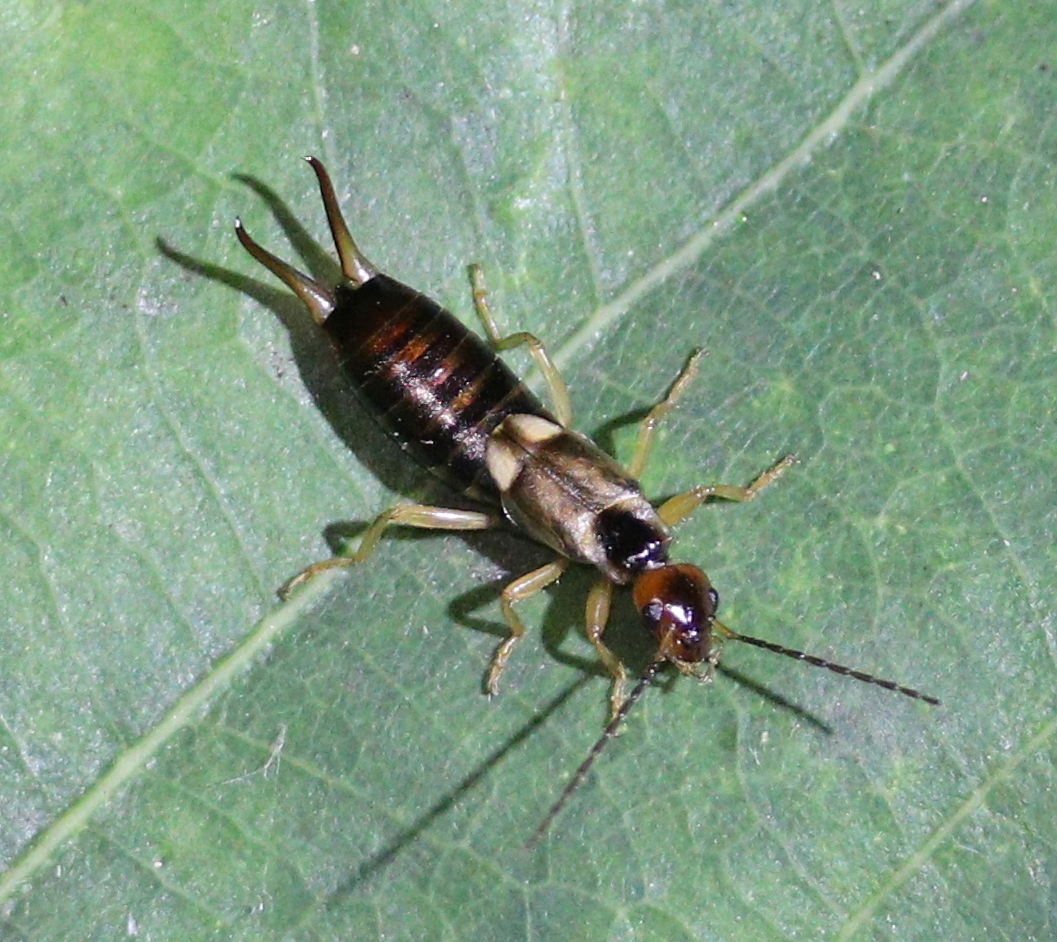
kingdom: Animalia
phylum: Arthropoda
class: Insecta
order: Dermaptera
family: Forficulidae
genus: Forficula
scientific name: Forficula
